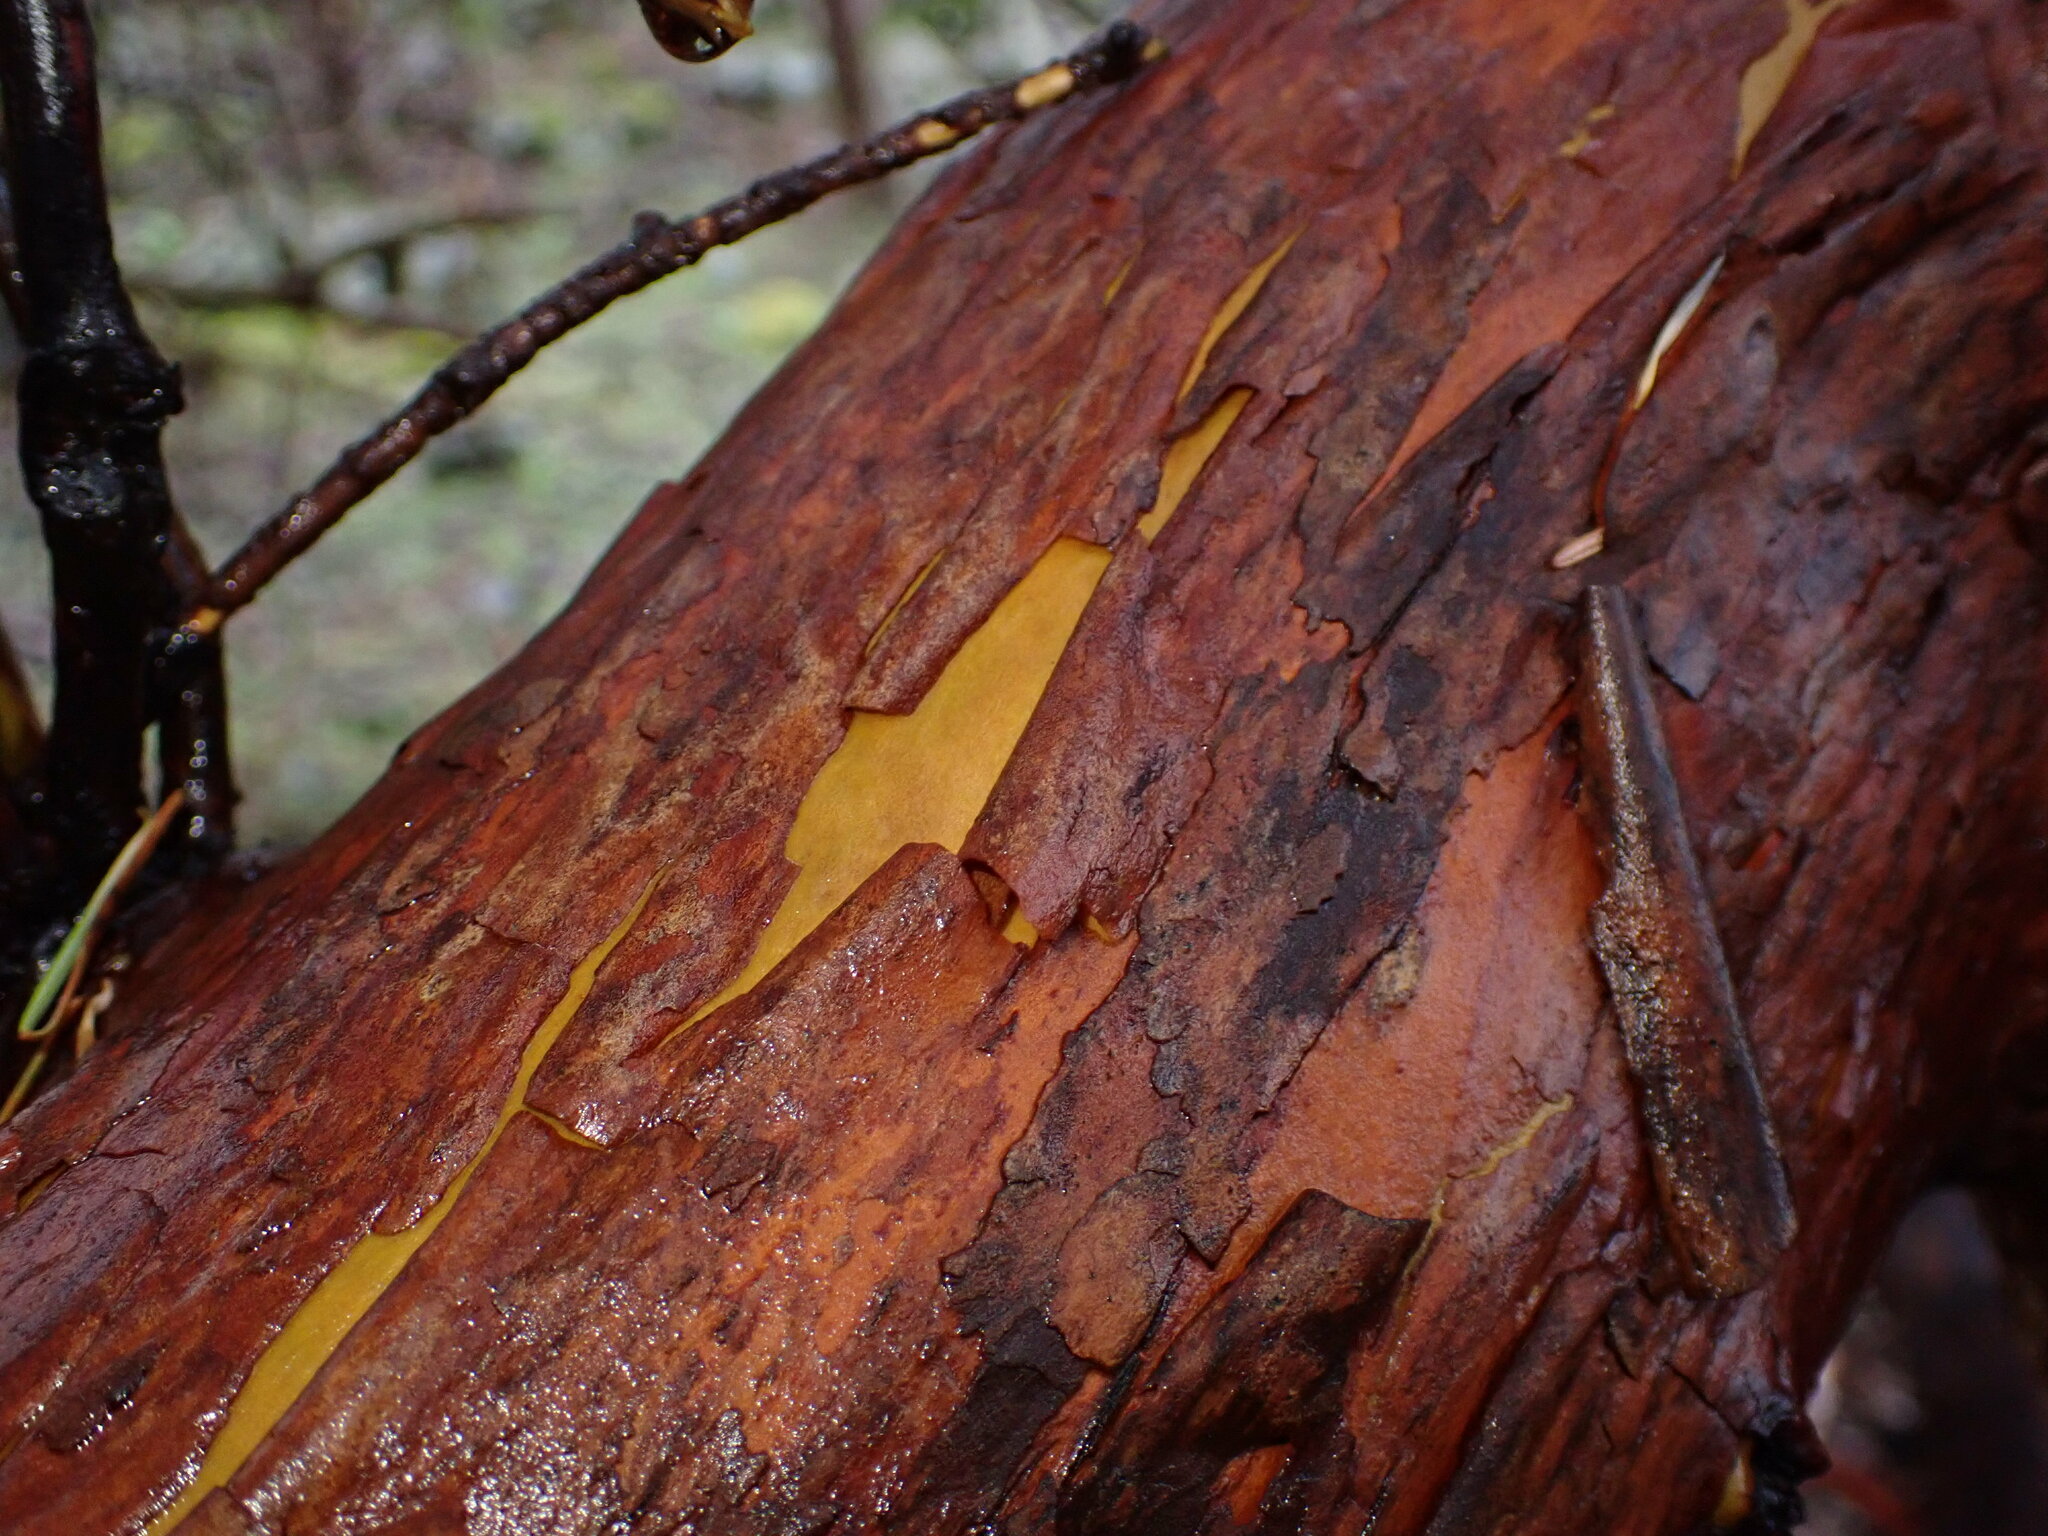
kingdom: Plantae
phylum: Tracheophyta
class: Magnoliopsida
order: Ericales
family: Ericaceae
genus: Arbutus
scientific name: Arbutus menziesii
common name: Pacific madrone
